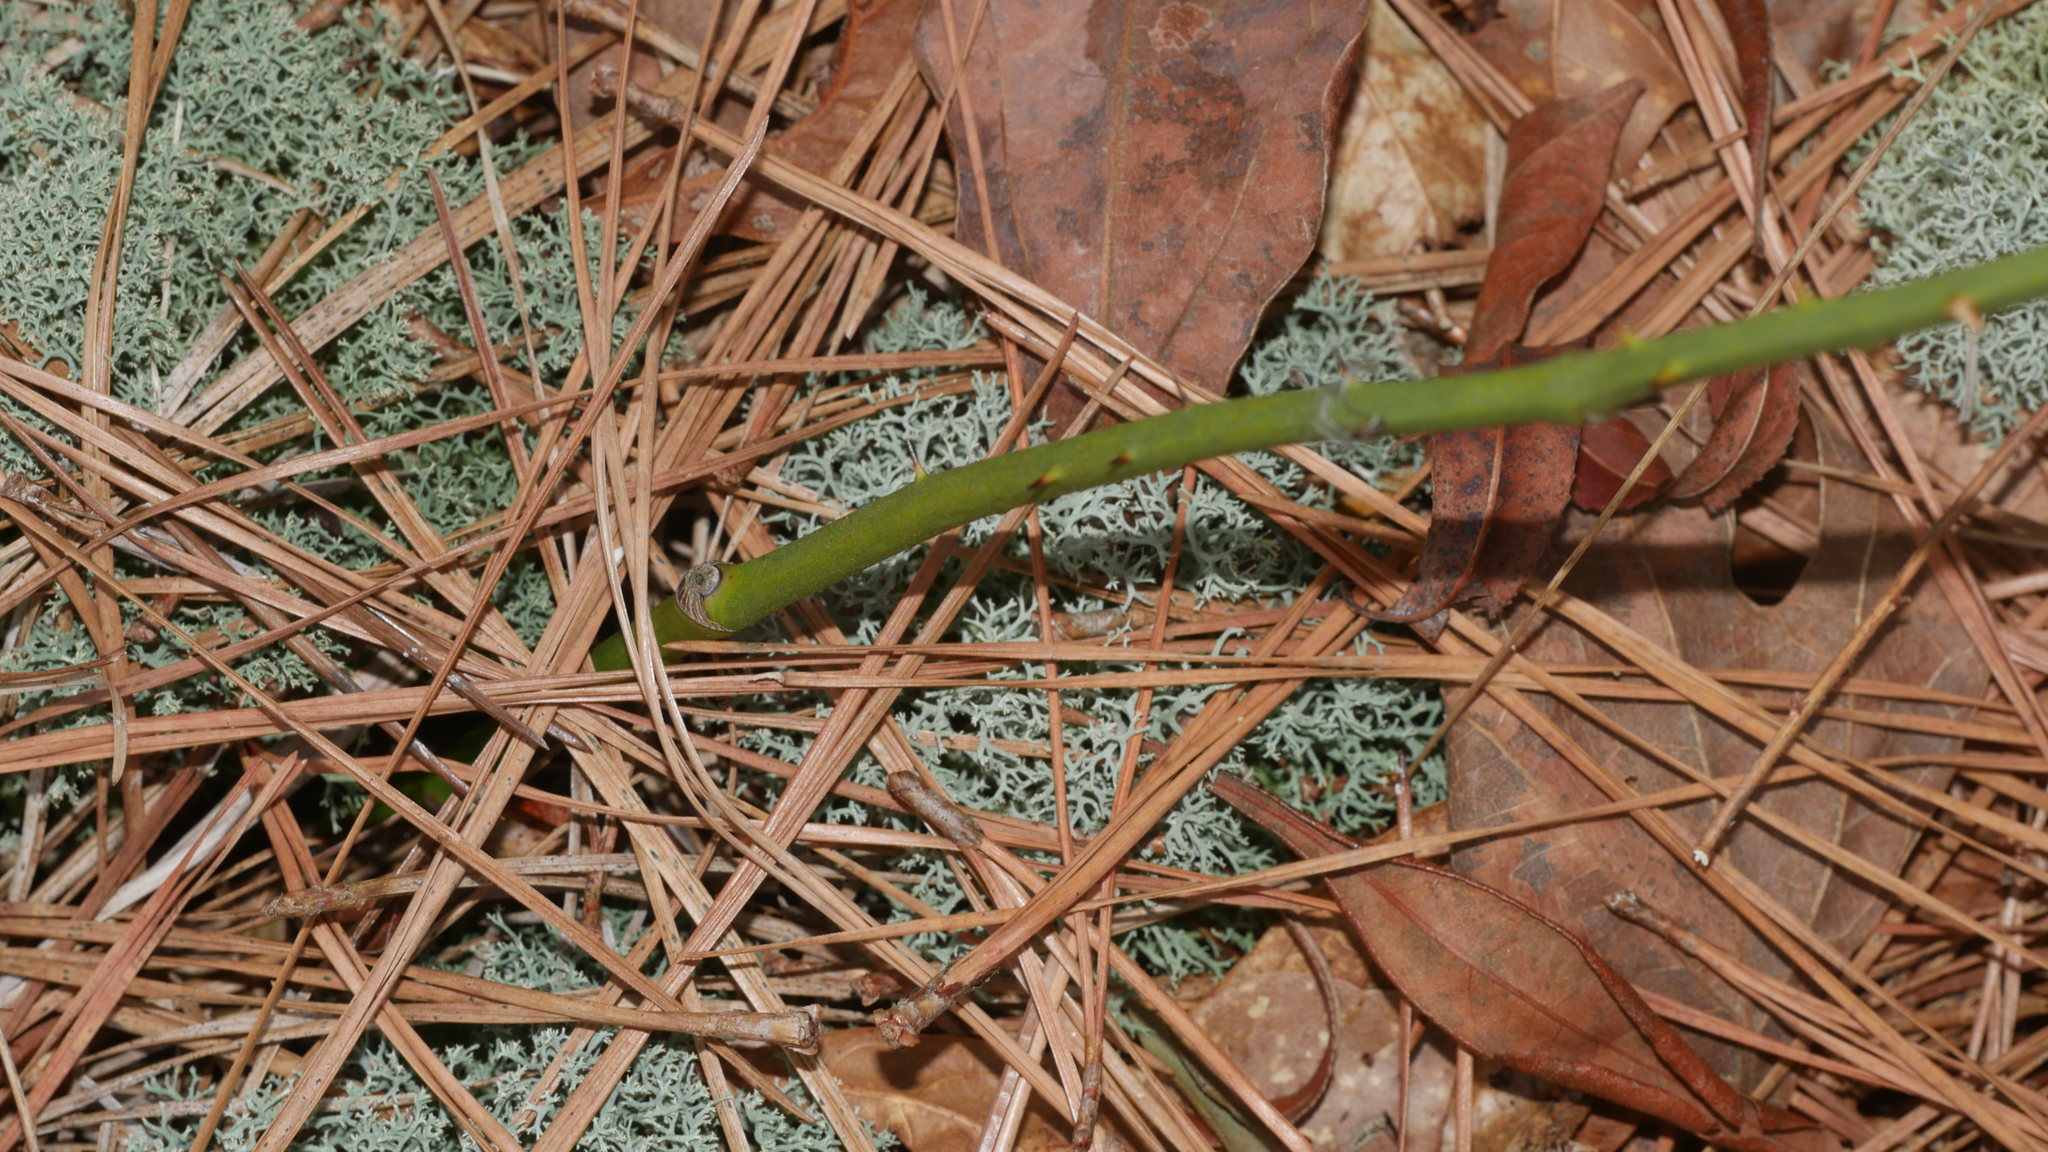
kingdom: Fungi
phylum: Ascomycota
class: Lecanoromycetes
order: Lecanorales
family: Cladoniaceae
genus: Cladonia
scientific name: Cladonia subtenuis
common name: Dixie reindeer lichen
